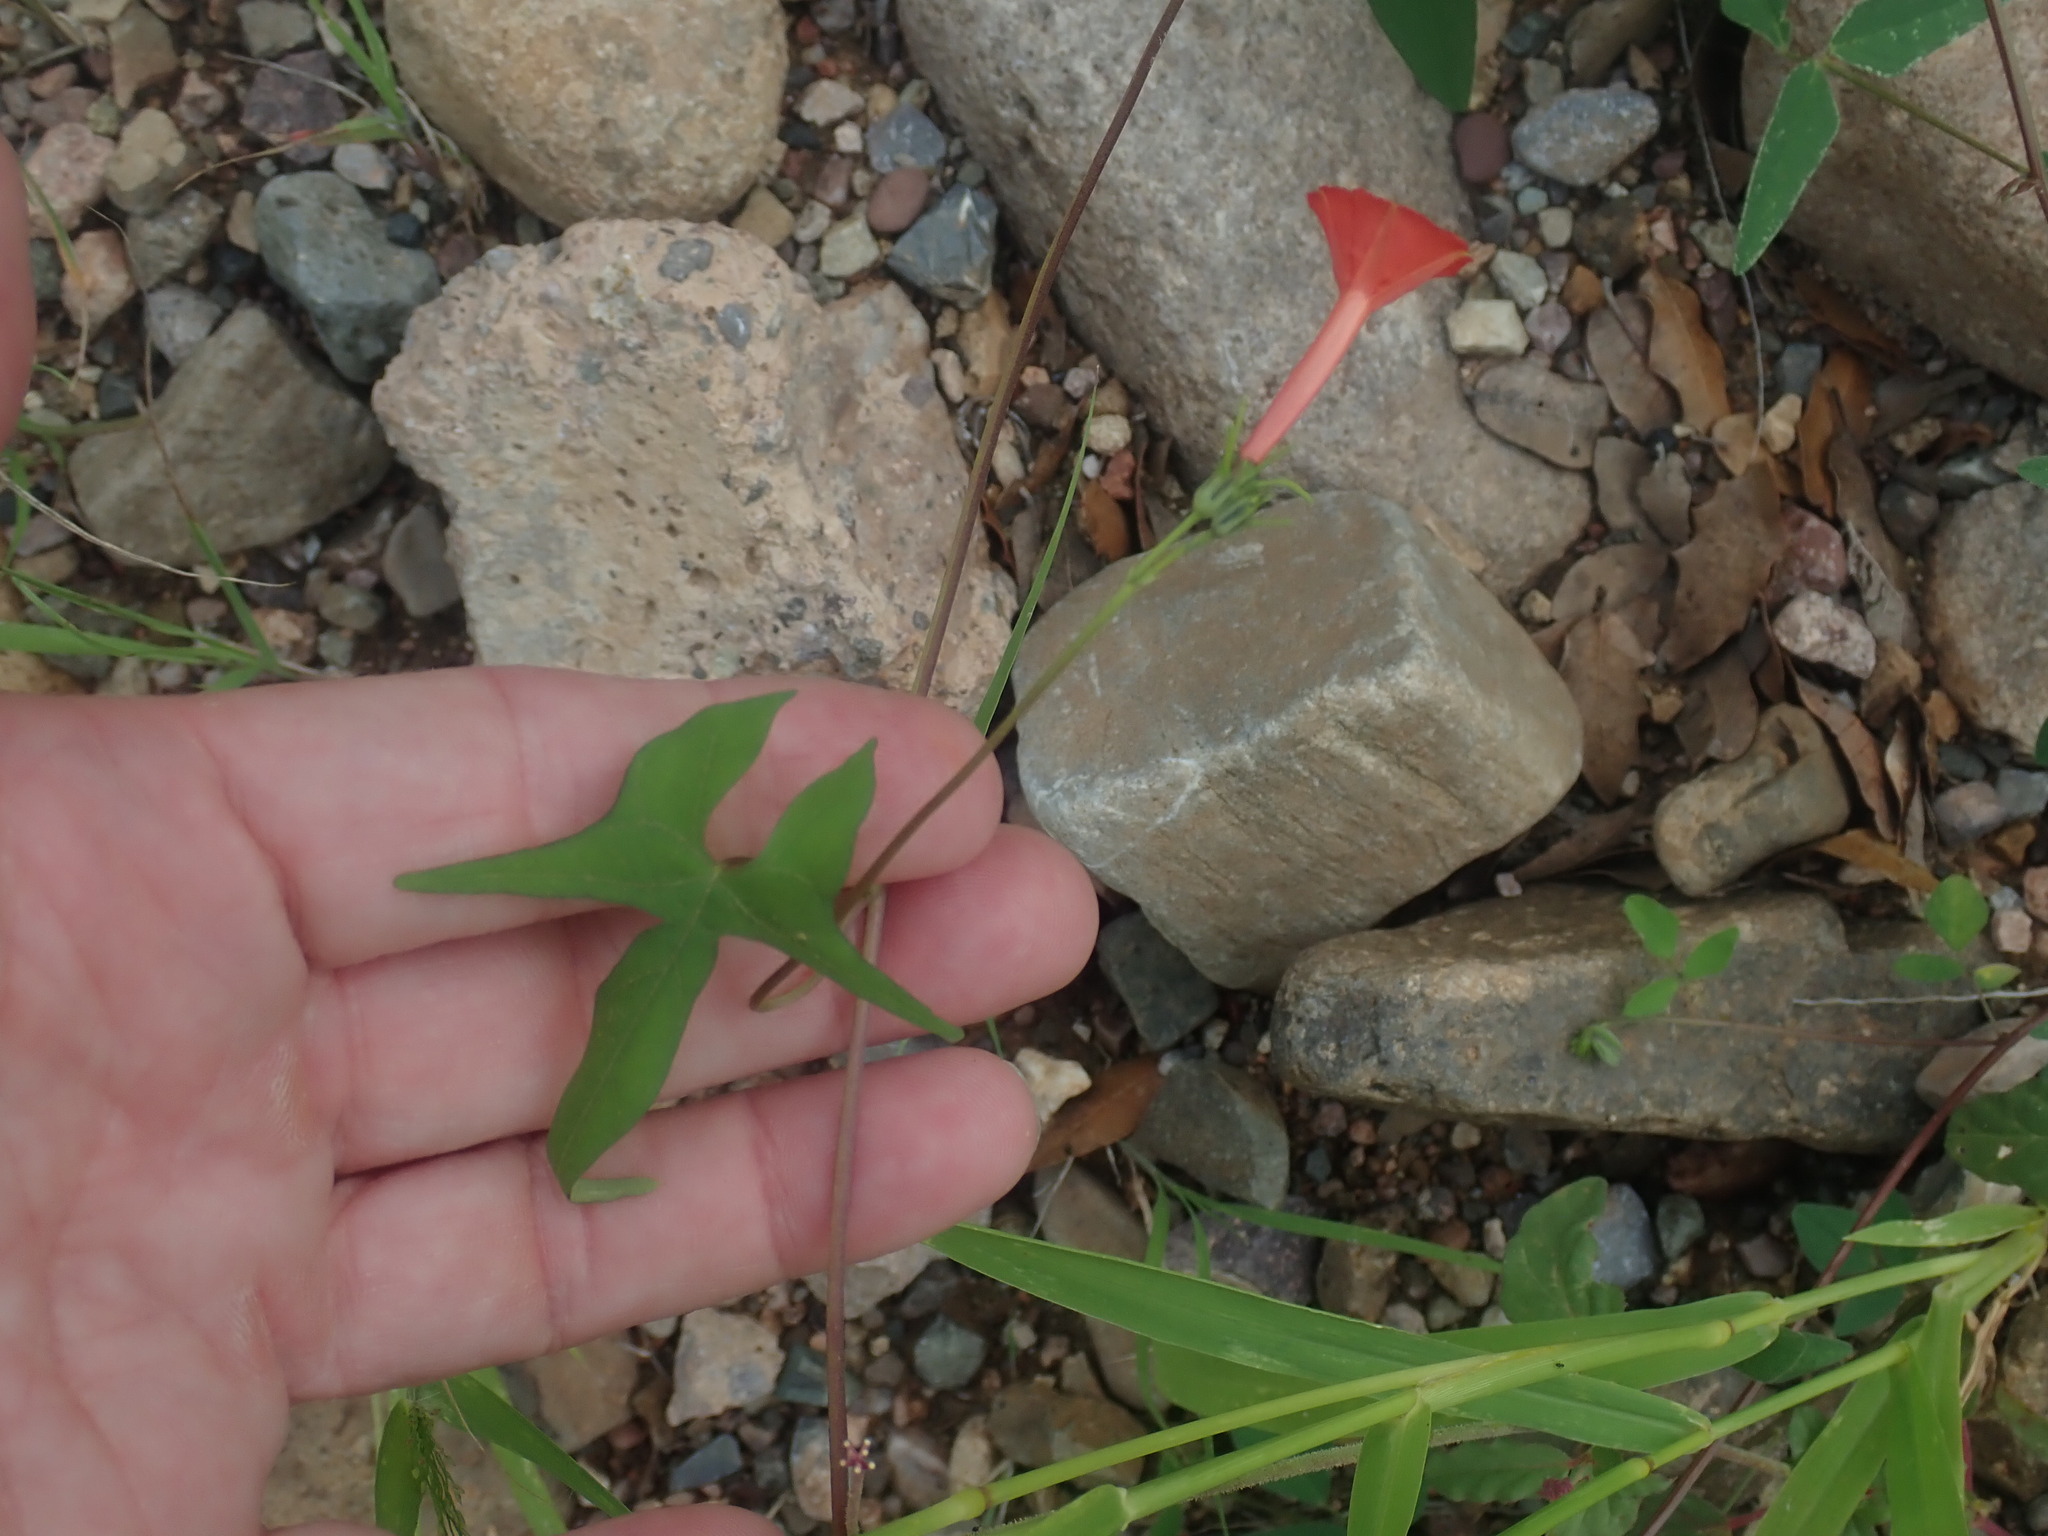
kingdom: Plantae
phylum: Tracheophyta
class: Magnoliopsida
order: Solanales
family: Convolvulaceae
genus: Ipomoea
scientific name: Ipomoea cristulata
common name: Trans-pecos morning-glory
